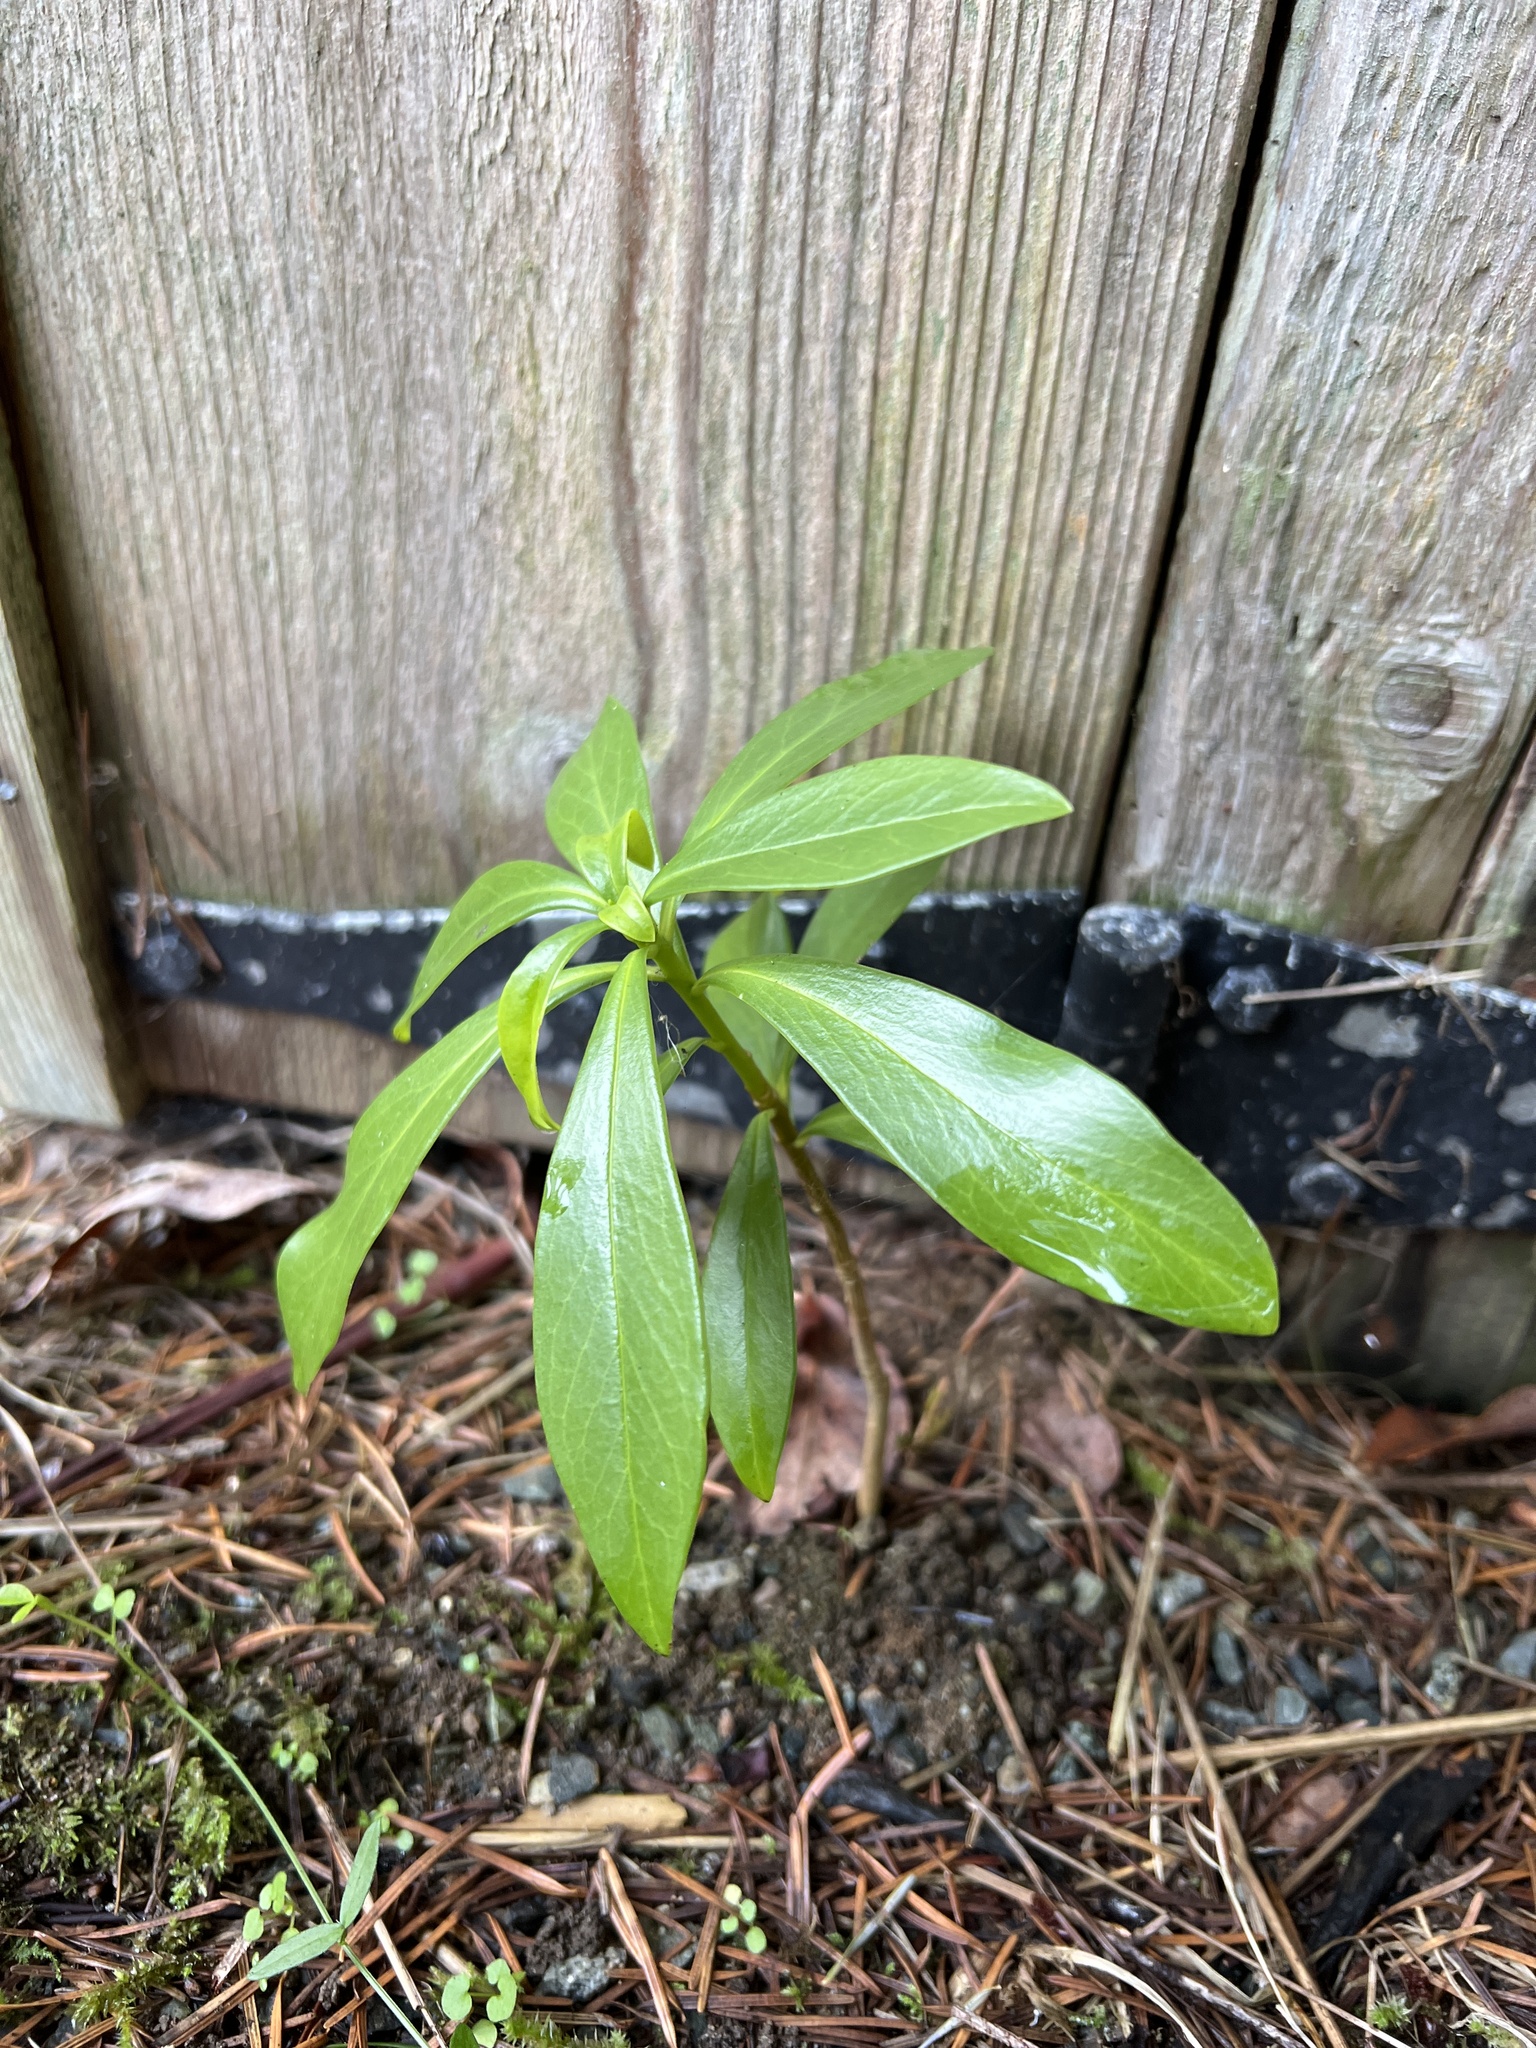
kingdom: Plantae
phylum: Tracheophyta
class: Magnoliopsida
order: Malvales
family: Thymelaeaceae
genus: Daphne
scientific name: Daphne laureola
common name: Spurge-laurel
